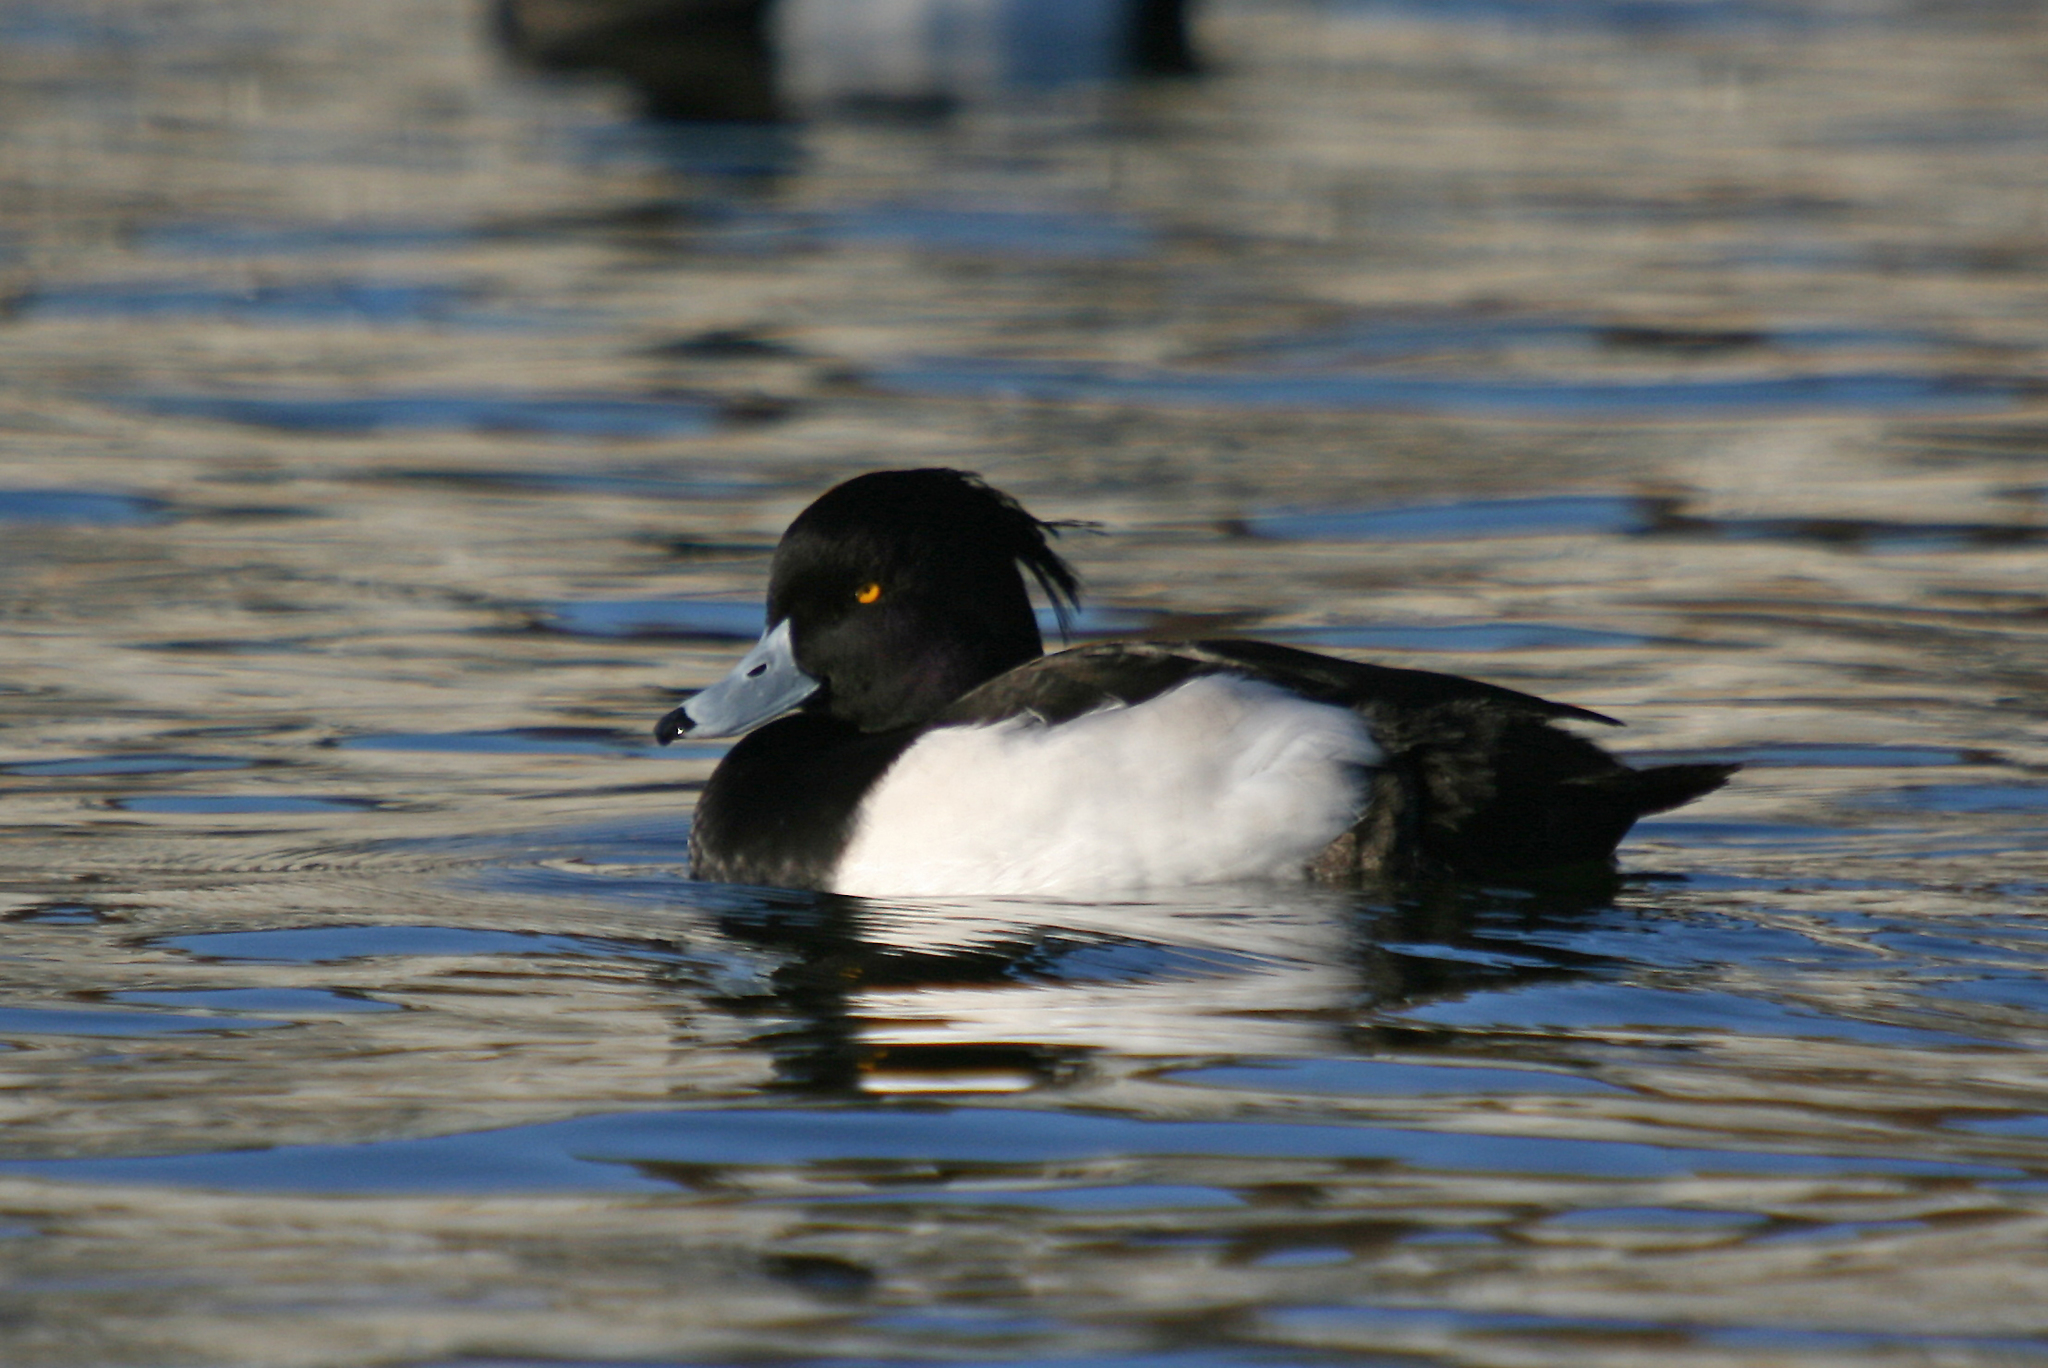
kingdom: Animalia
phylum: Chordata
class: Aves
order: Anseriformes
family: Anatidae
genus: Aythya
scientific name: Aythya fuligula
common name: Tufted duck
